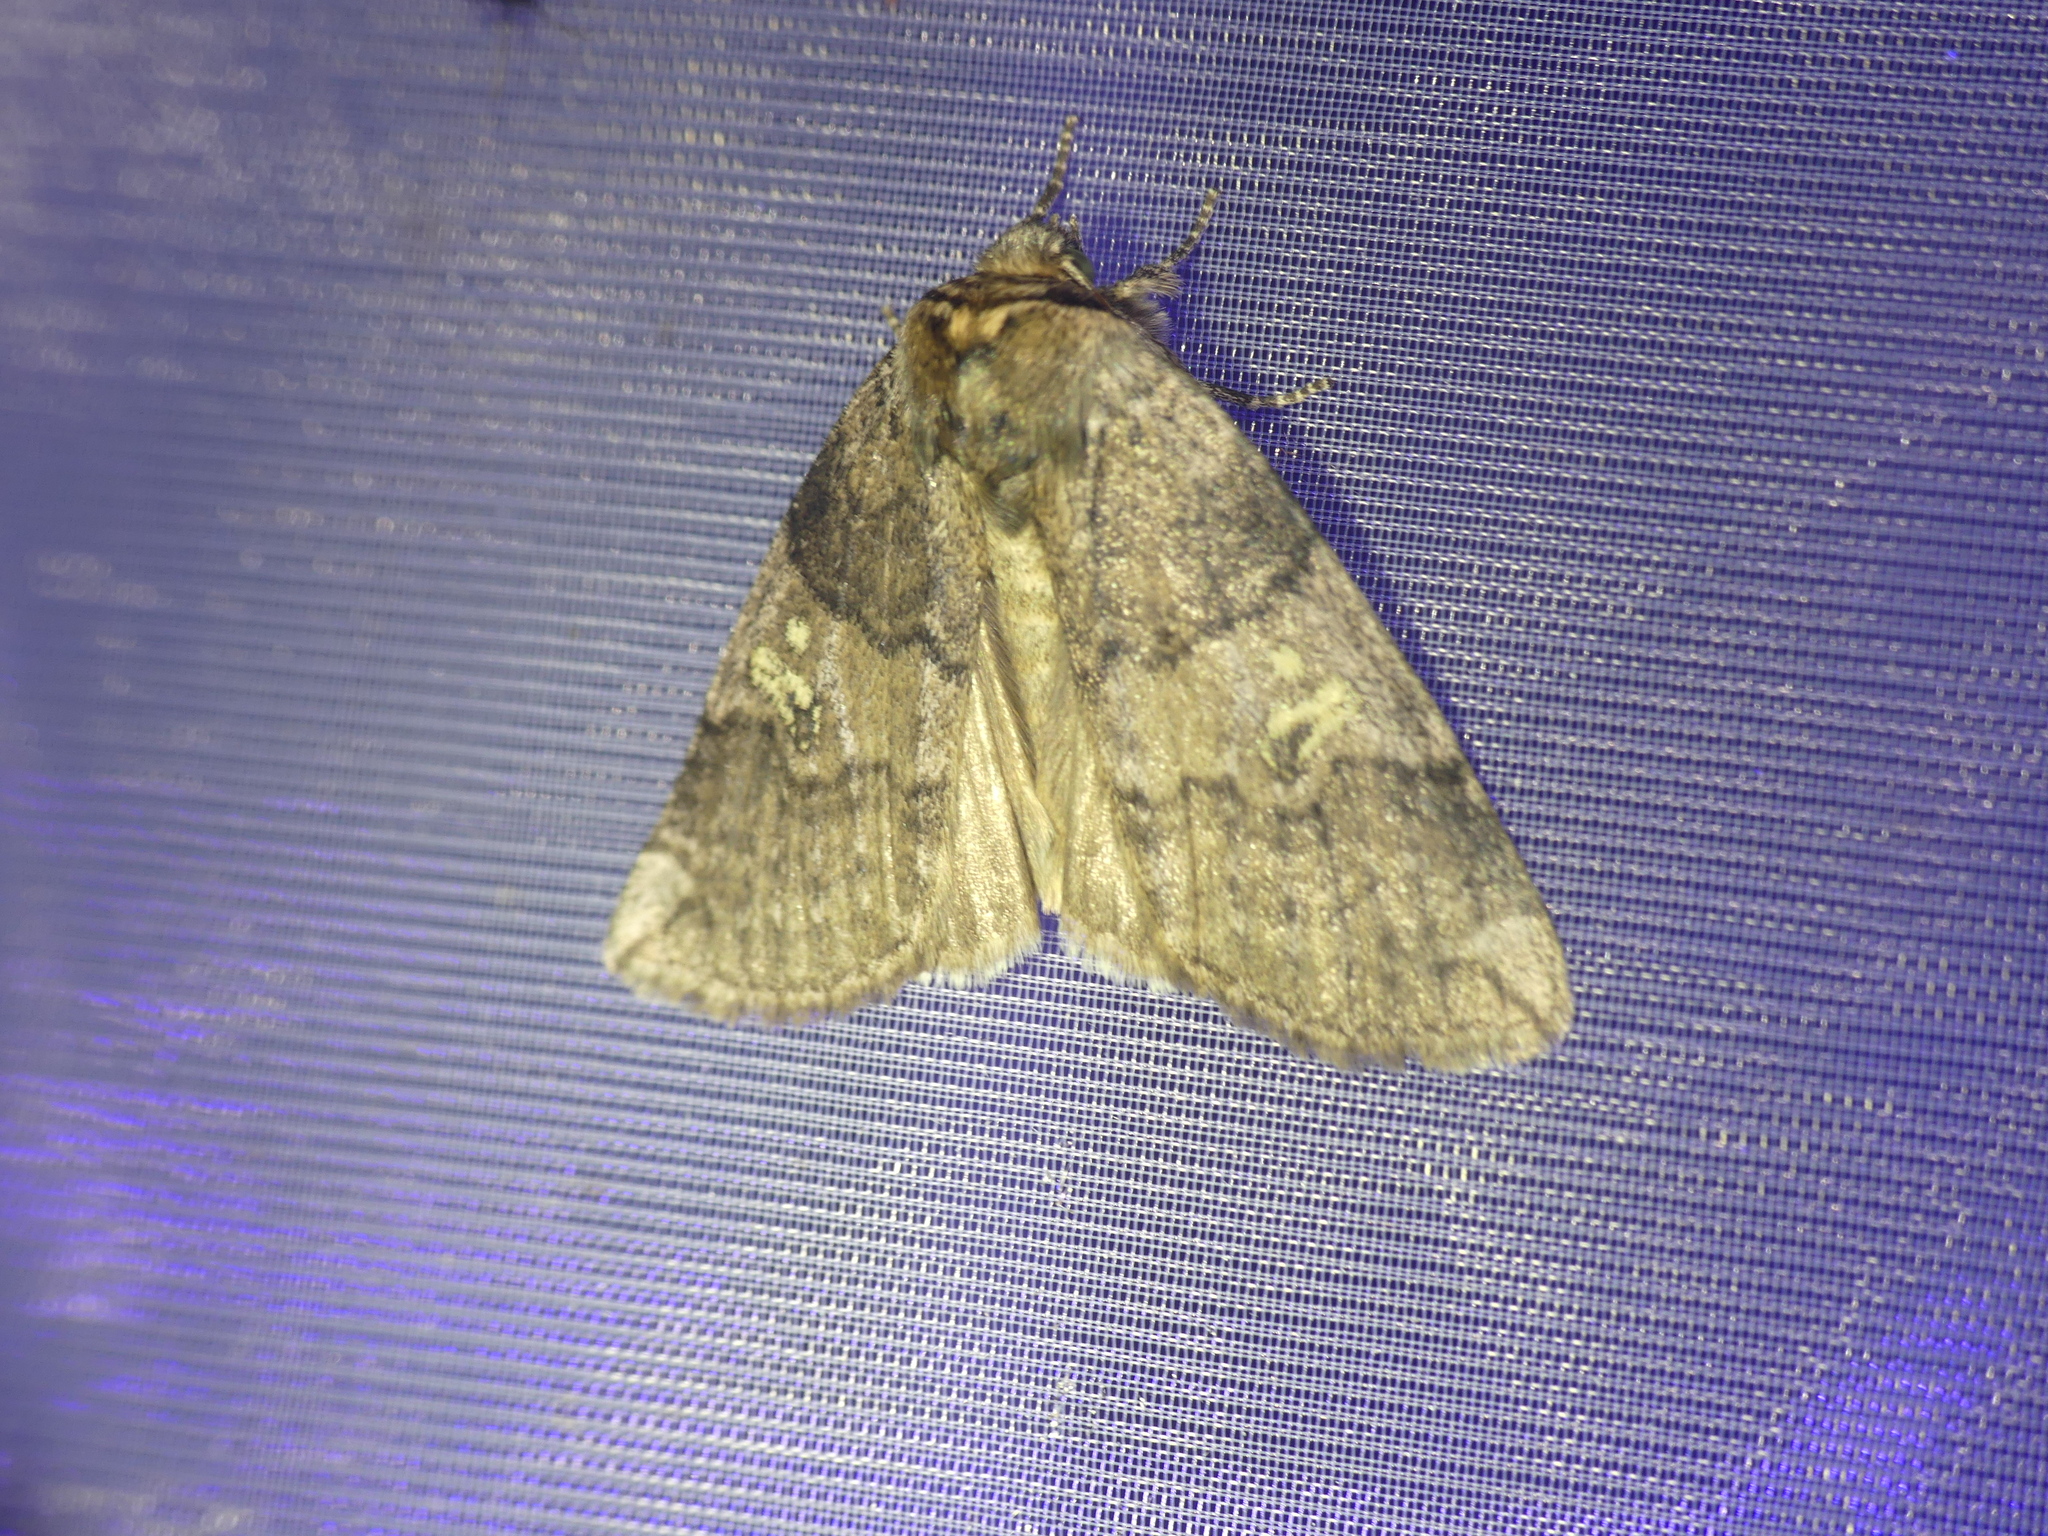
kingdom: Animalia
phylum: Arthropoda
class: Insecta
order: Lepidoptera
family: Drepanidae
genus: Tethea
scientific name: Tethea or
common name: Poplar lutestring
